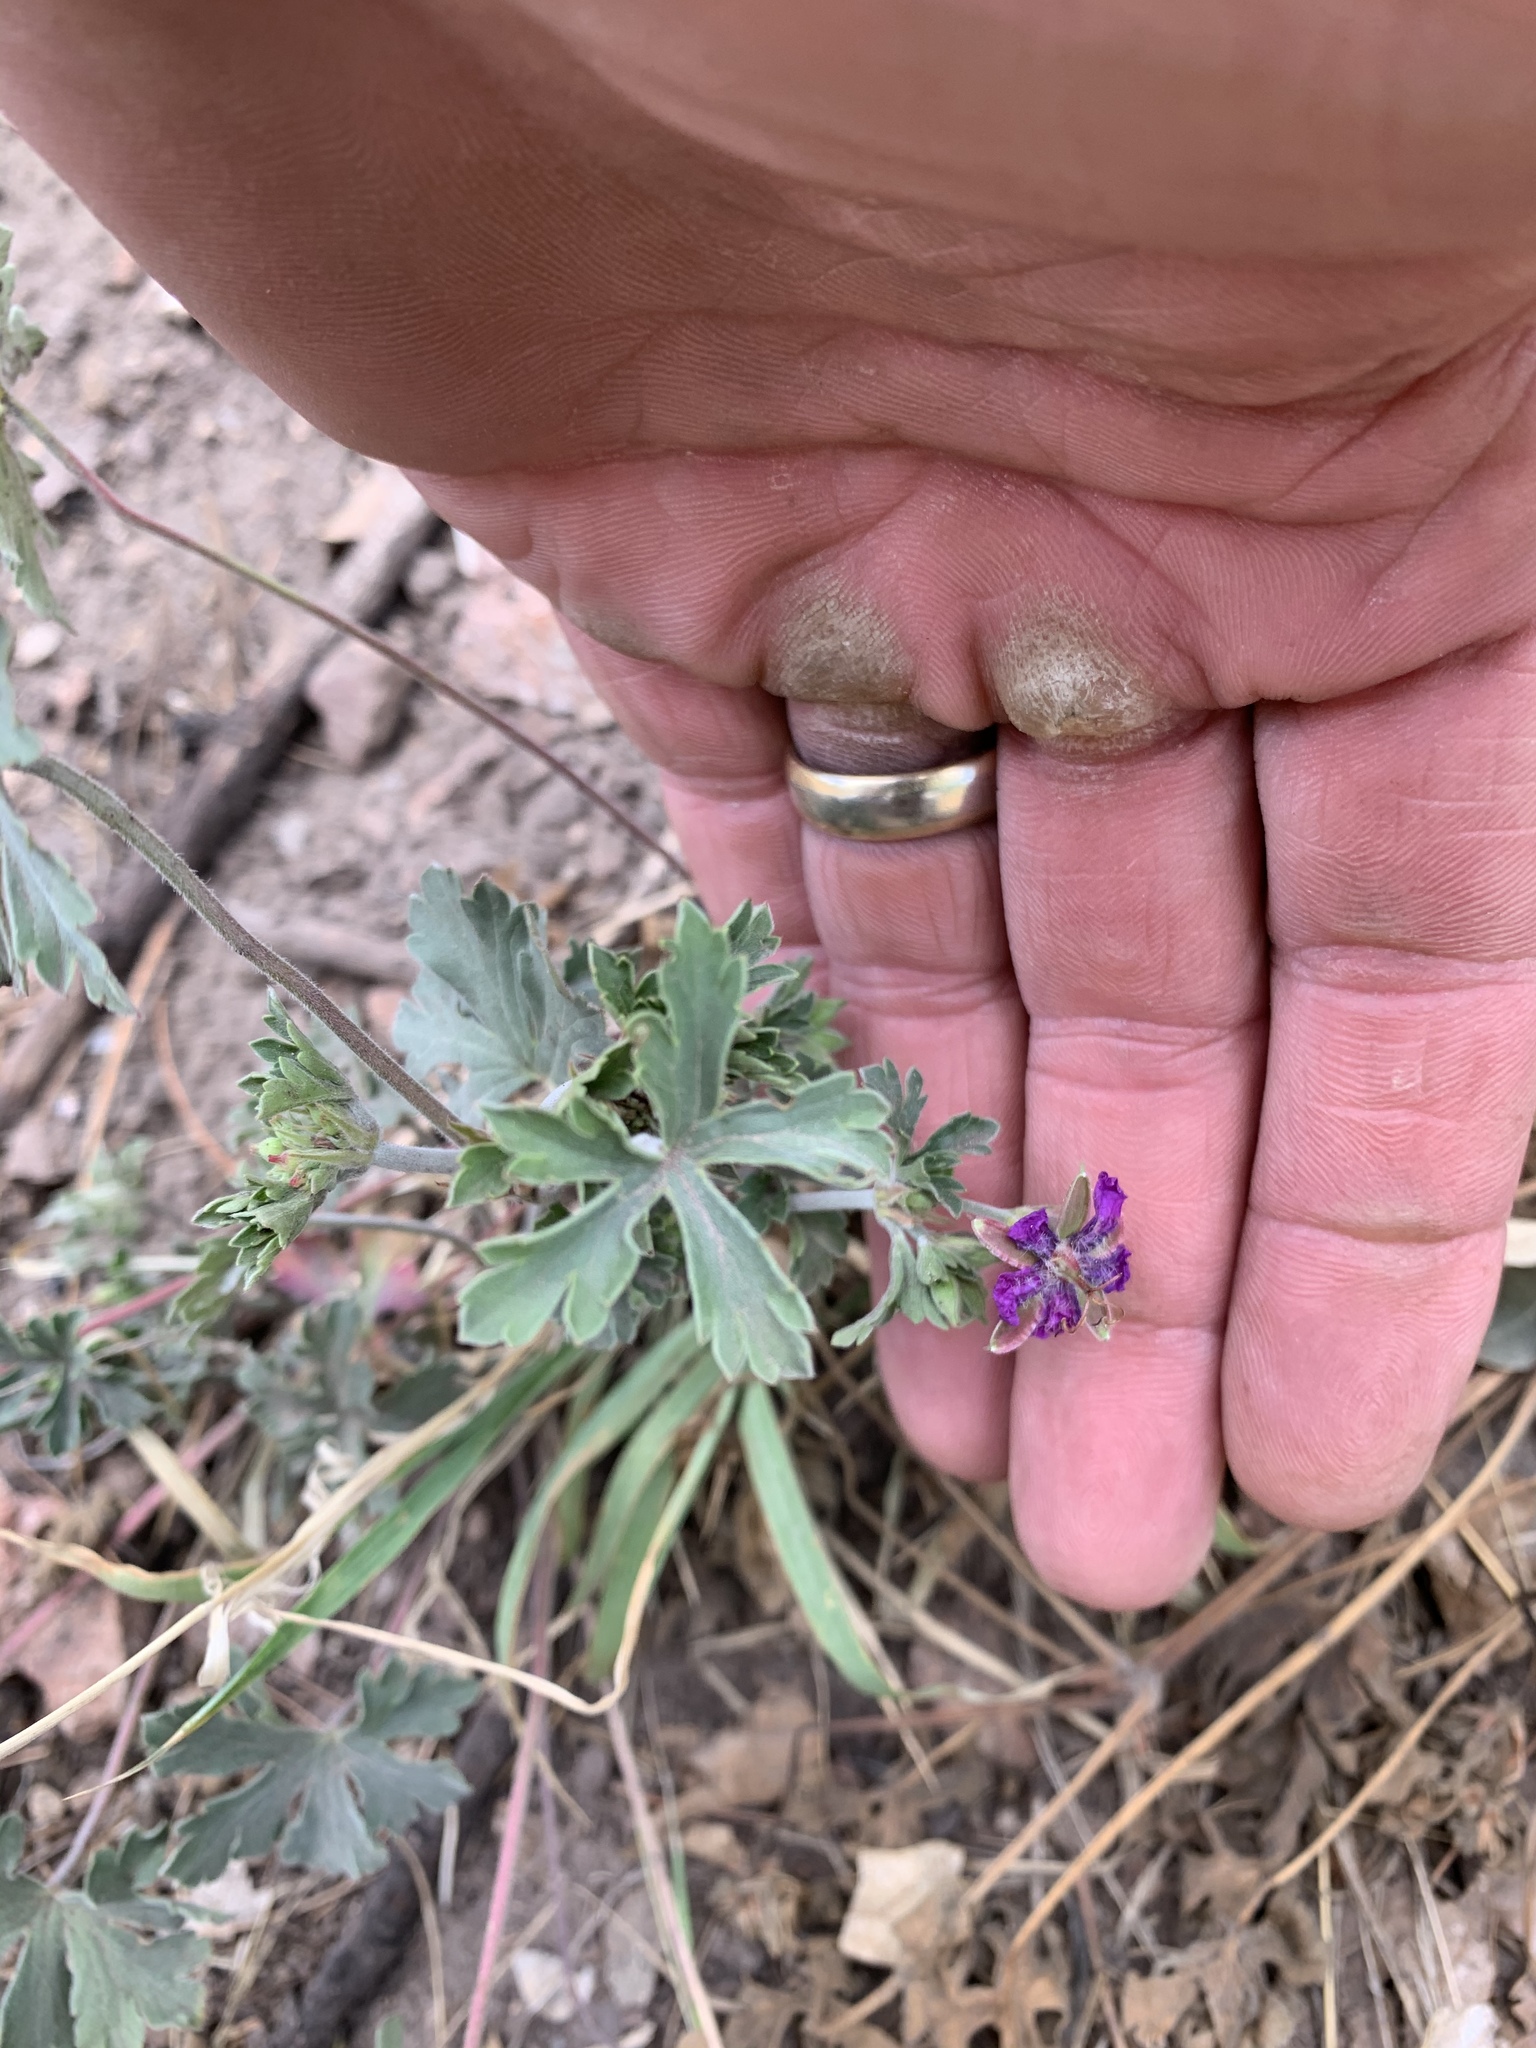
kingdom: Plantae
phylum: Tracheophyta
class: Magnoliopsida
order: Geraniales
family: Geraniaceae
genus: Geranium
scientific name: Geranium caespitosum
